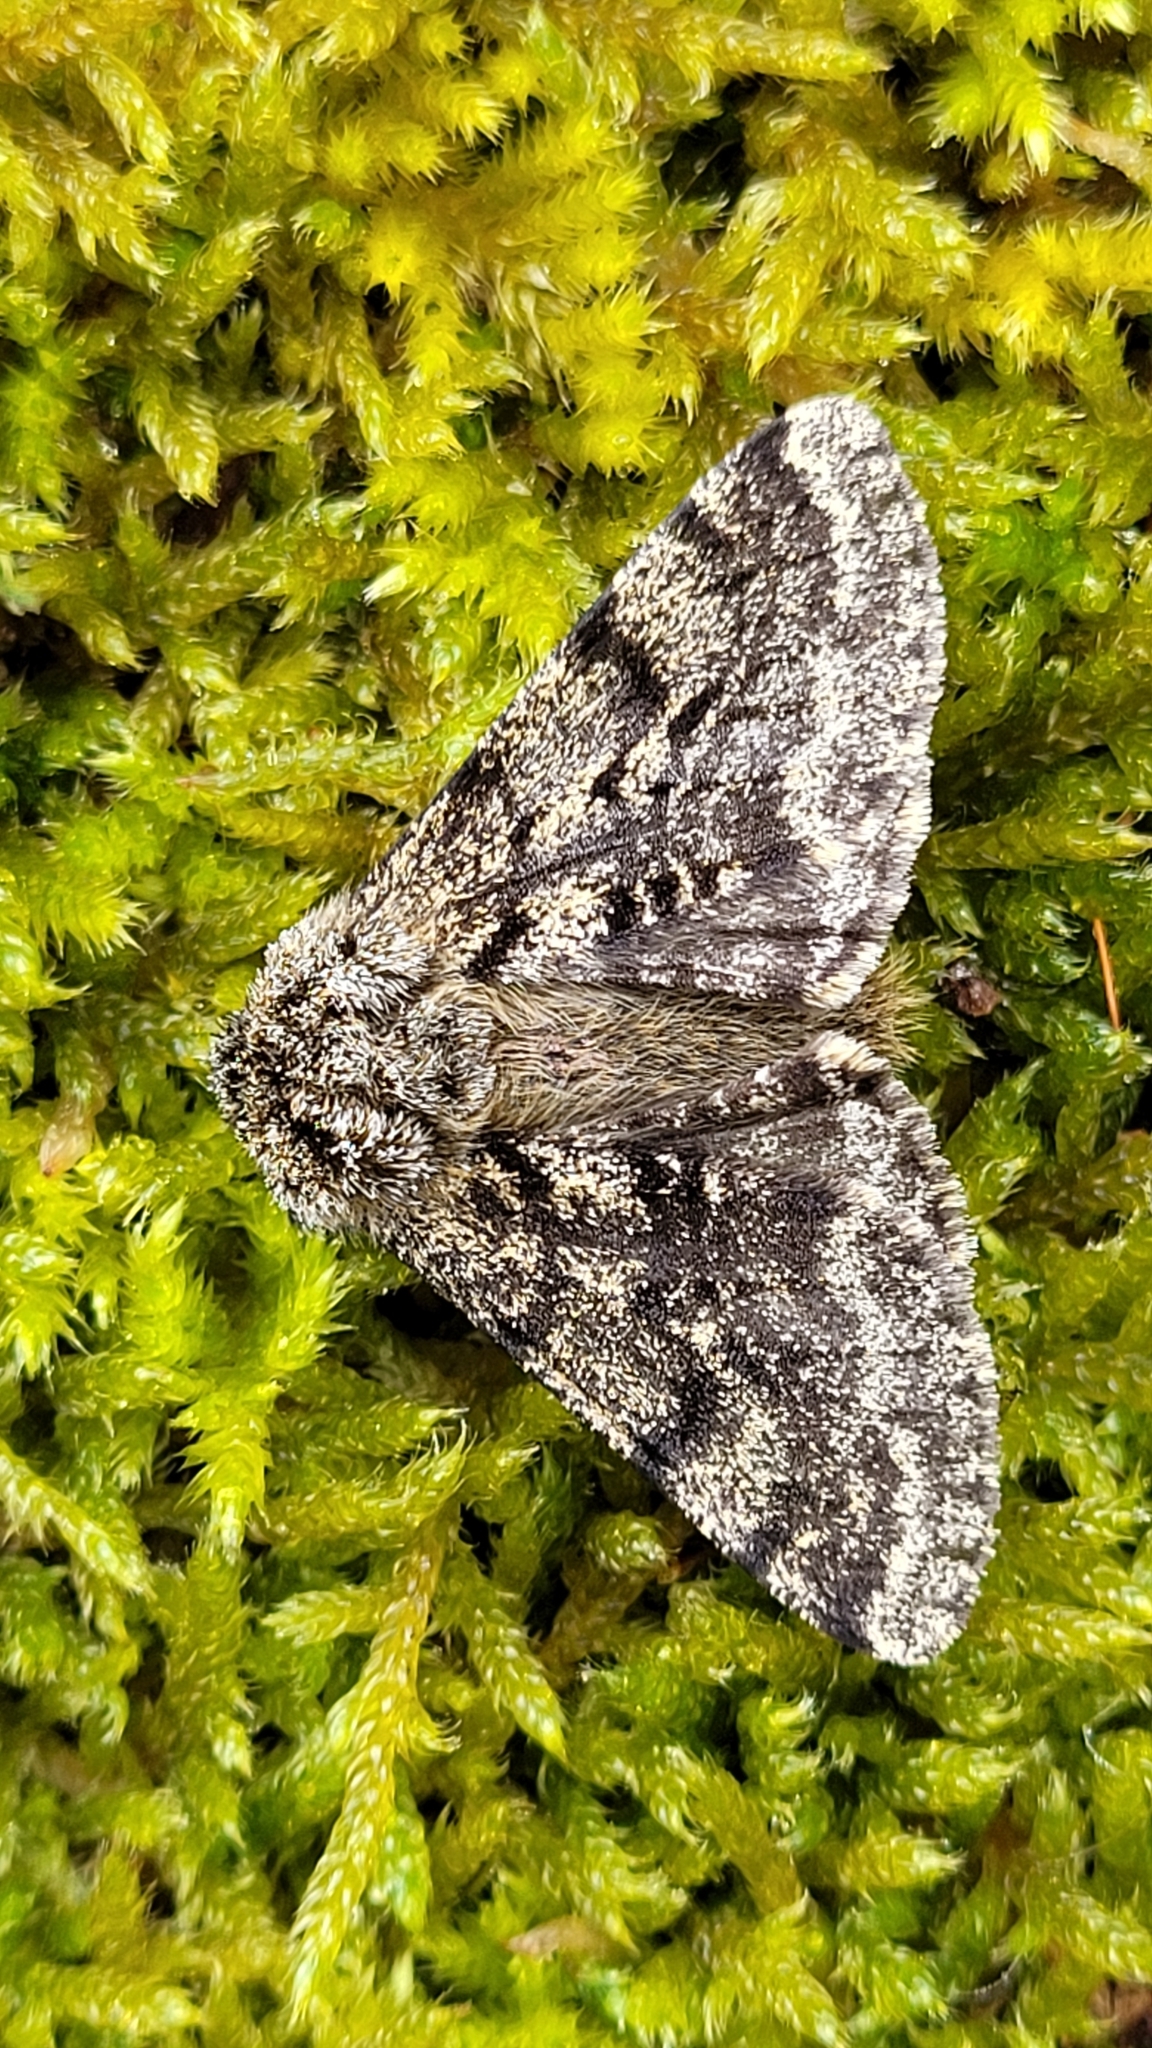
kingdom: Animalia
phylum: Arthropoda
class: Insecta
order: Lepidoptera
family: Geometridae
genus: Lycia
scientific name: Lycia hirtaria
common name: Brindled beauty
